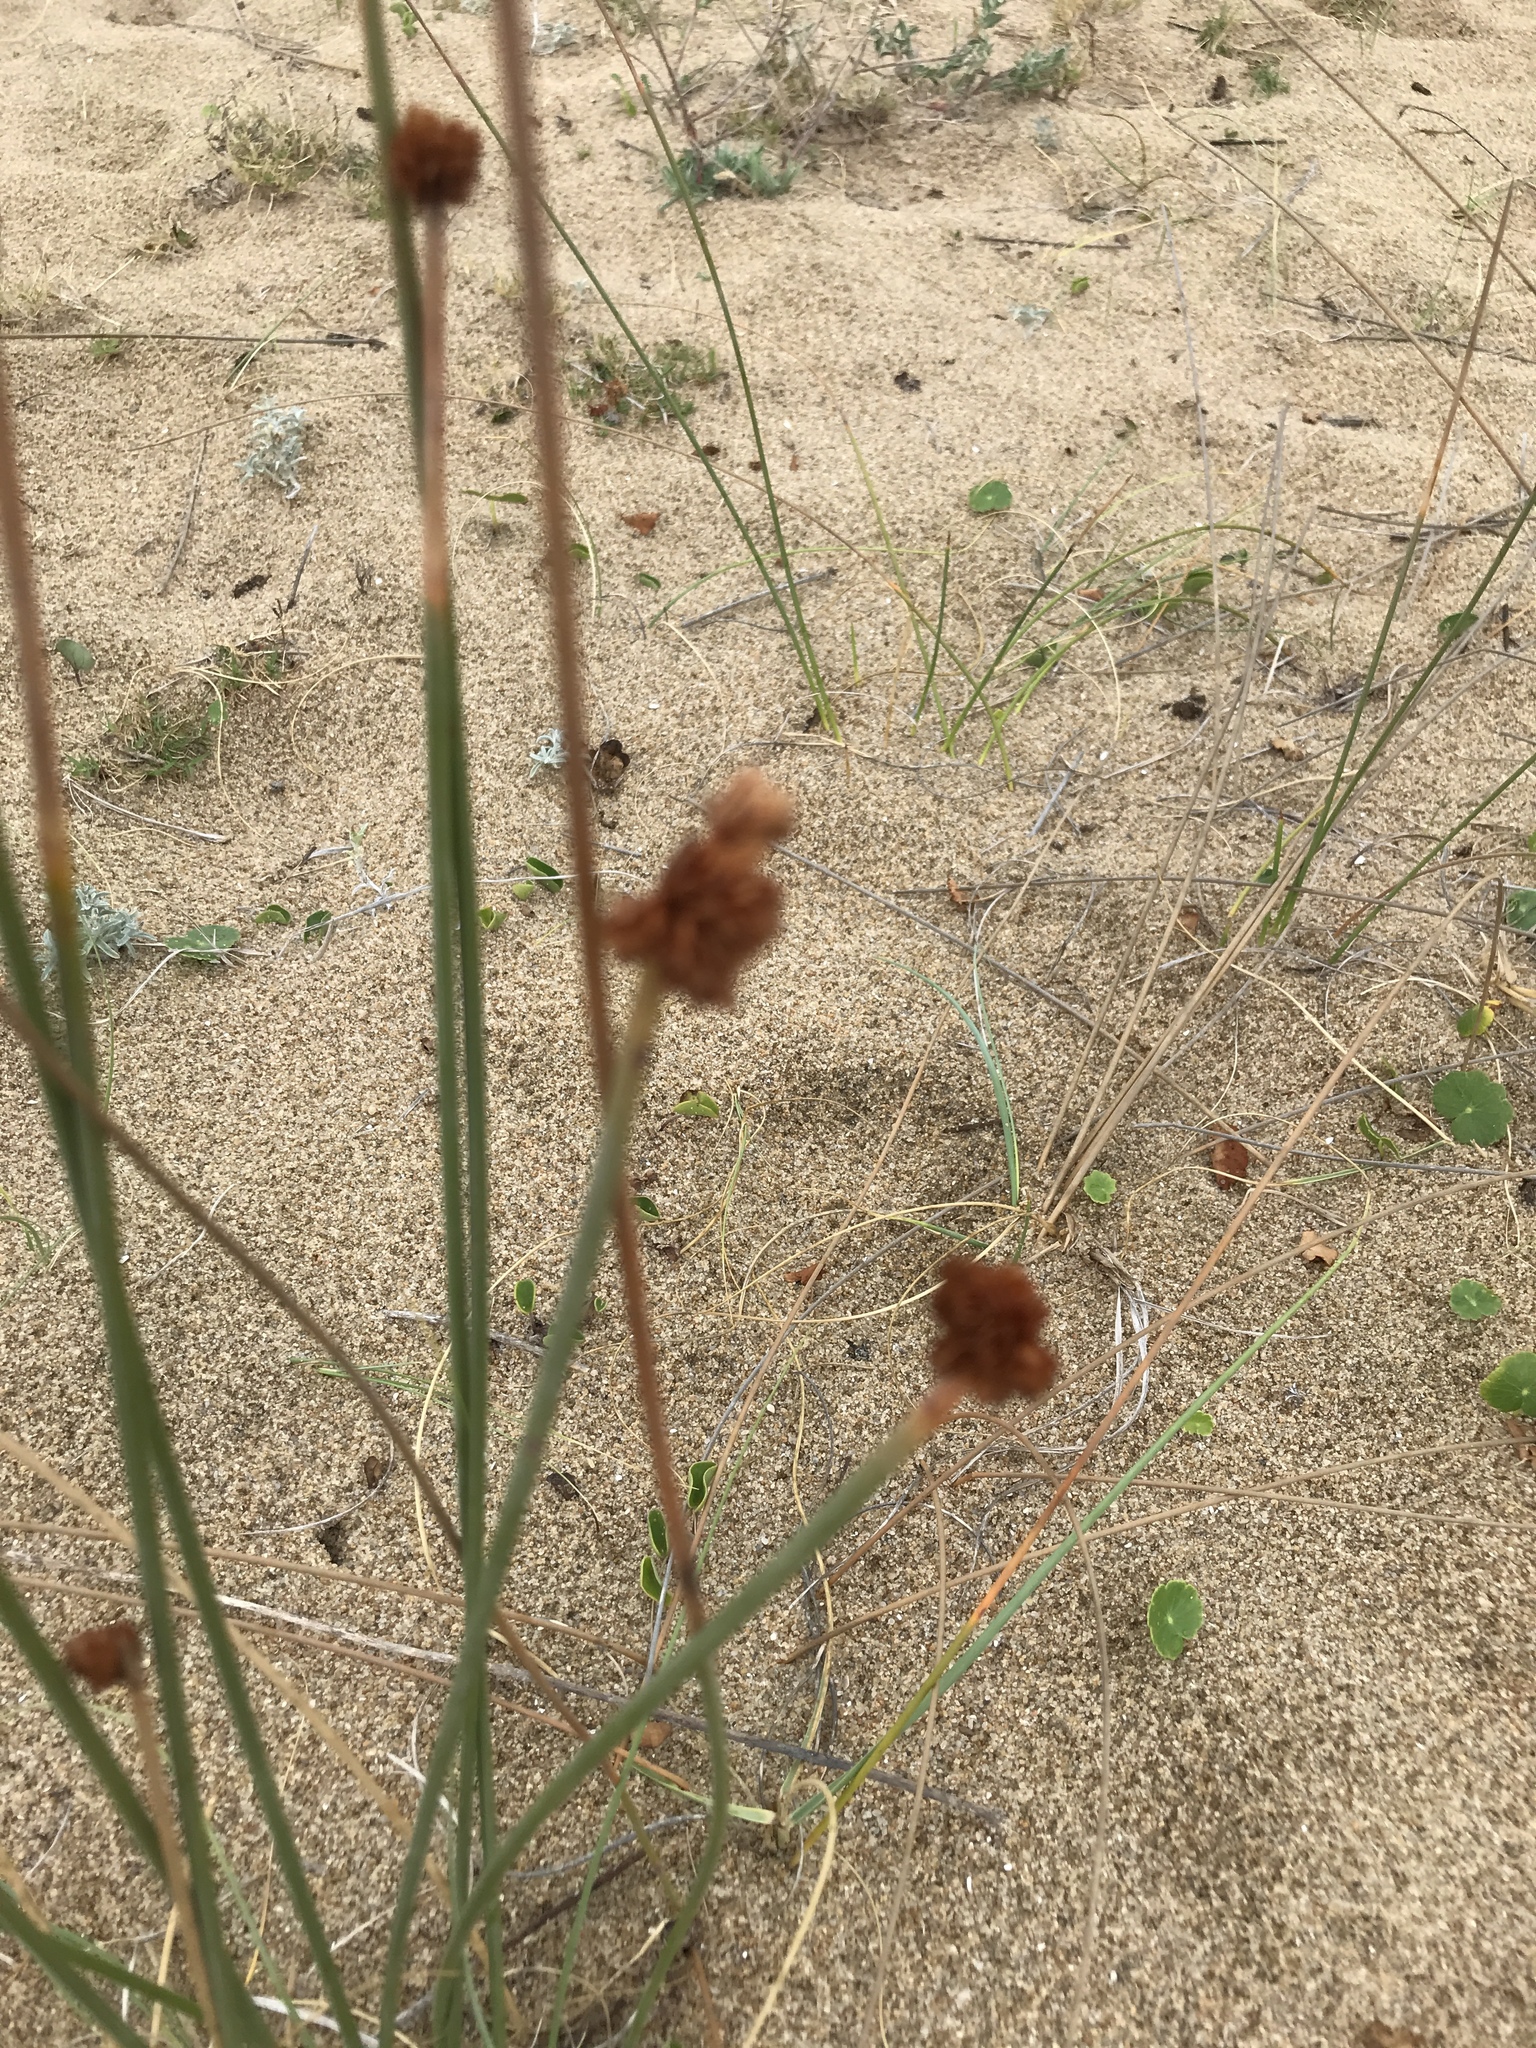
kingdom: Plantae
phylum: Tracheophyta
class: Liliopsida
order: Poales
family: Cyperaceae
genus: Cyperus
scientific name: Cyperus trigynus
